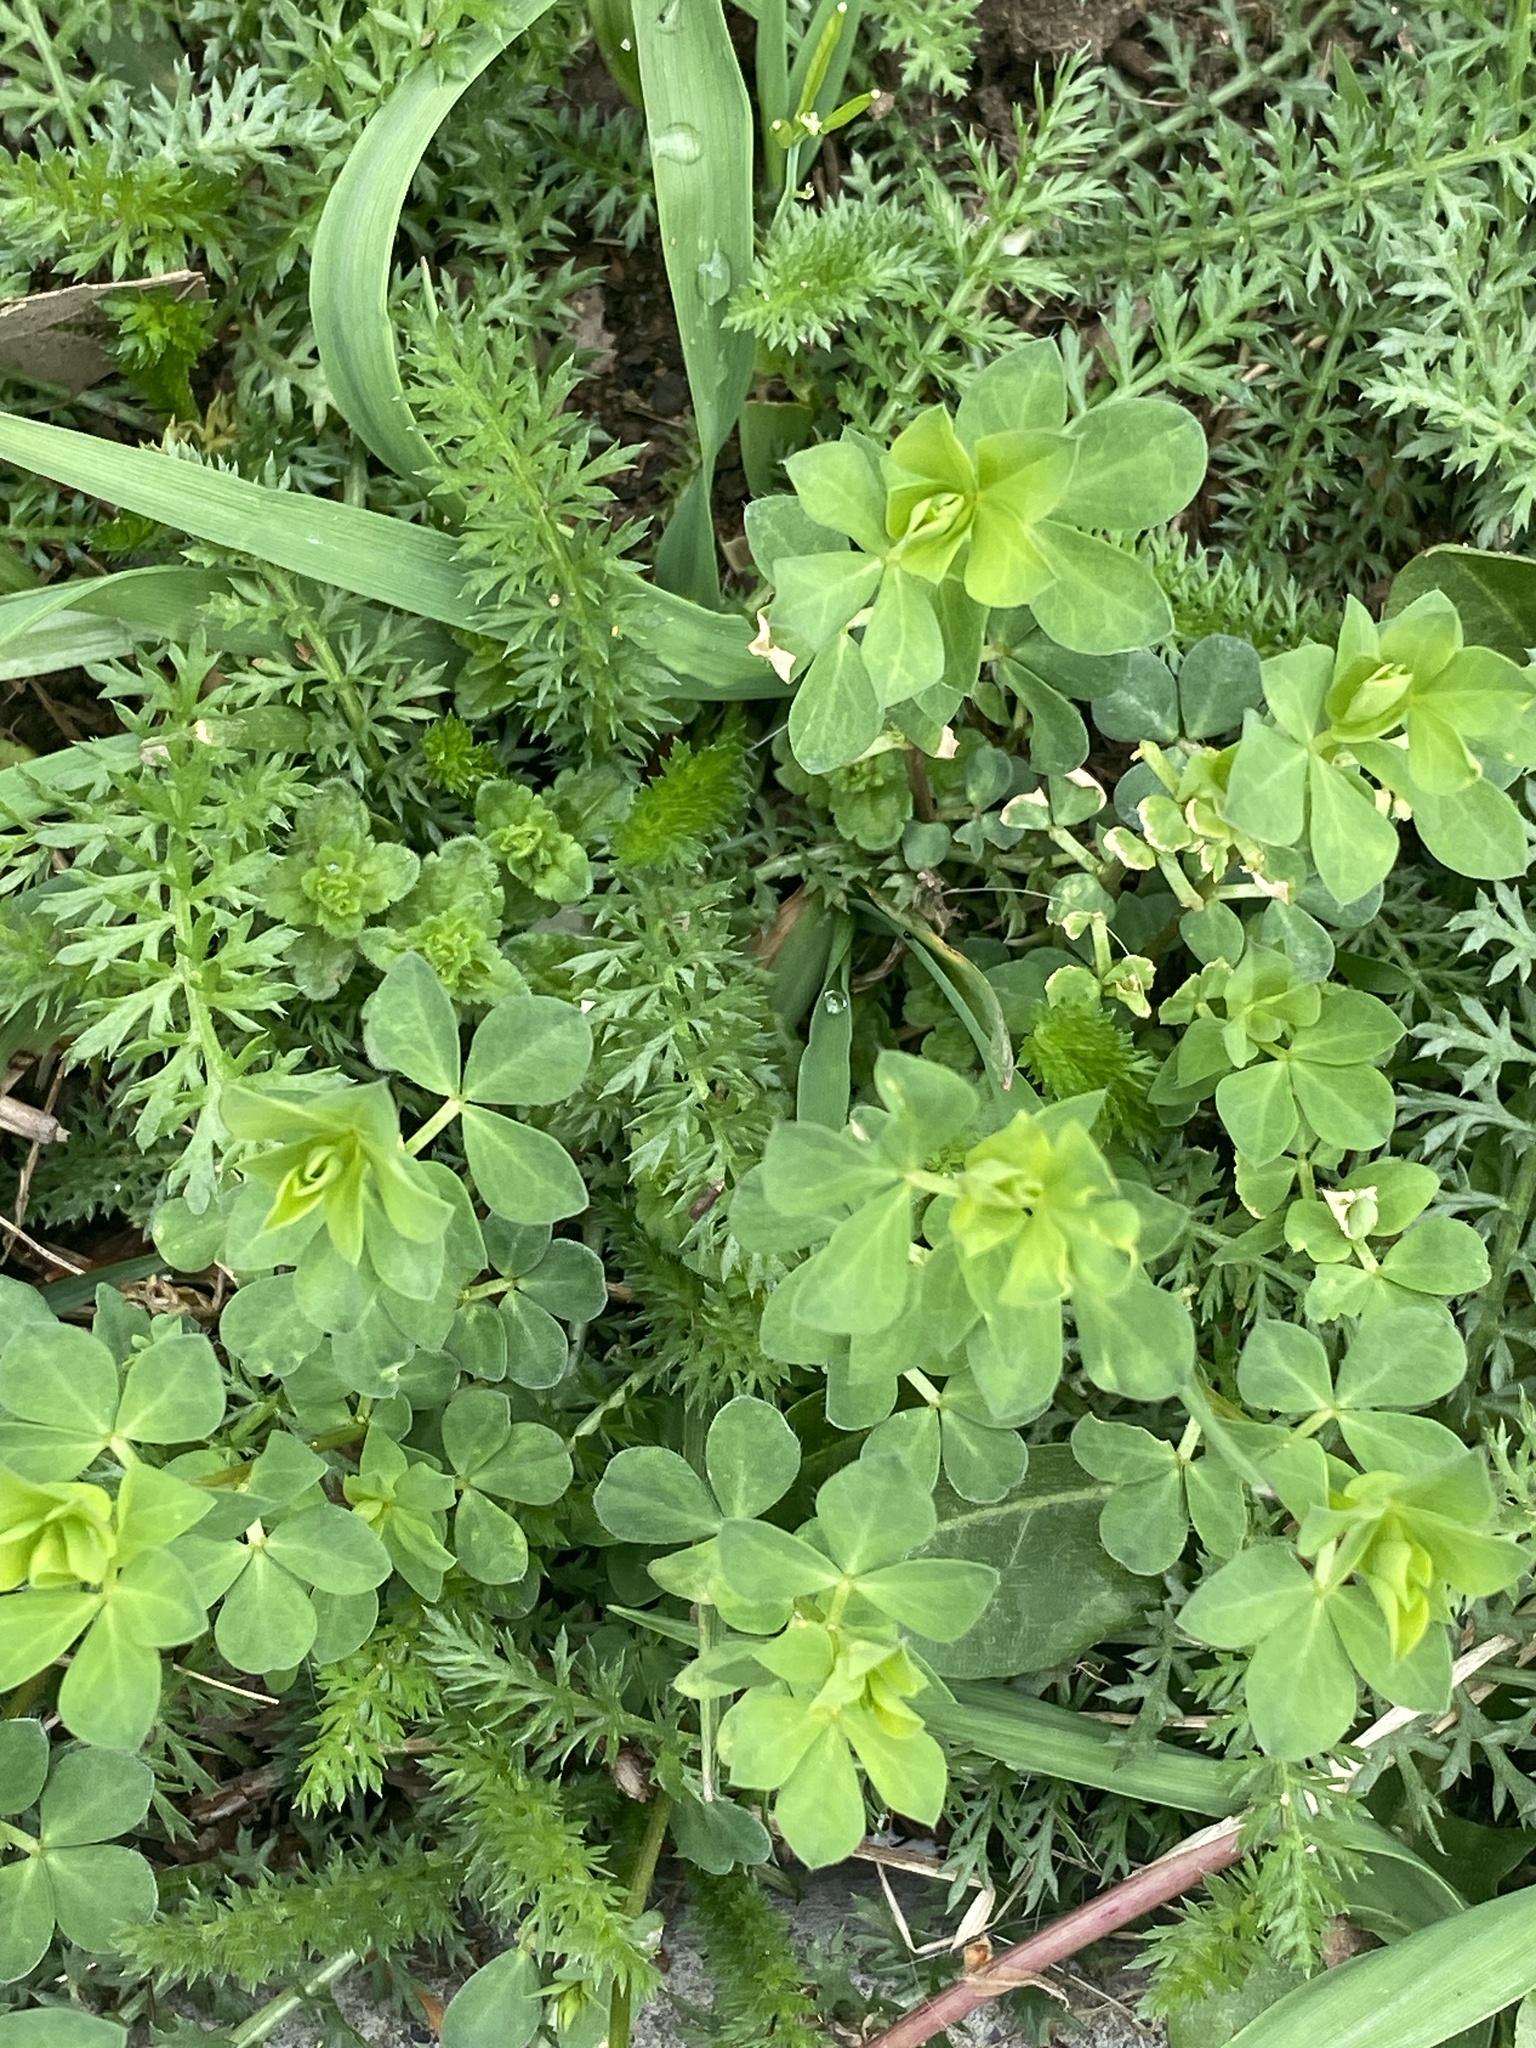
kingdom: Plantae
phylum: Tracheophyta
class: Magnoliopsida
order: Fabales
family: Fabaceae
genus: Lotus
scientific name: Lotus corniculatus
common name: Common bird's-foot-trefoil
